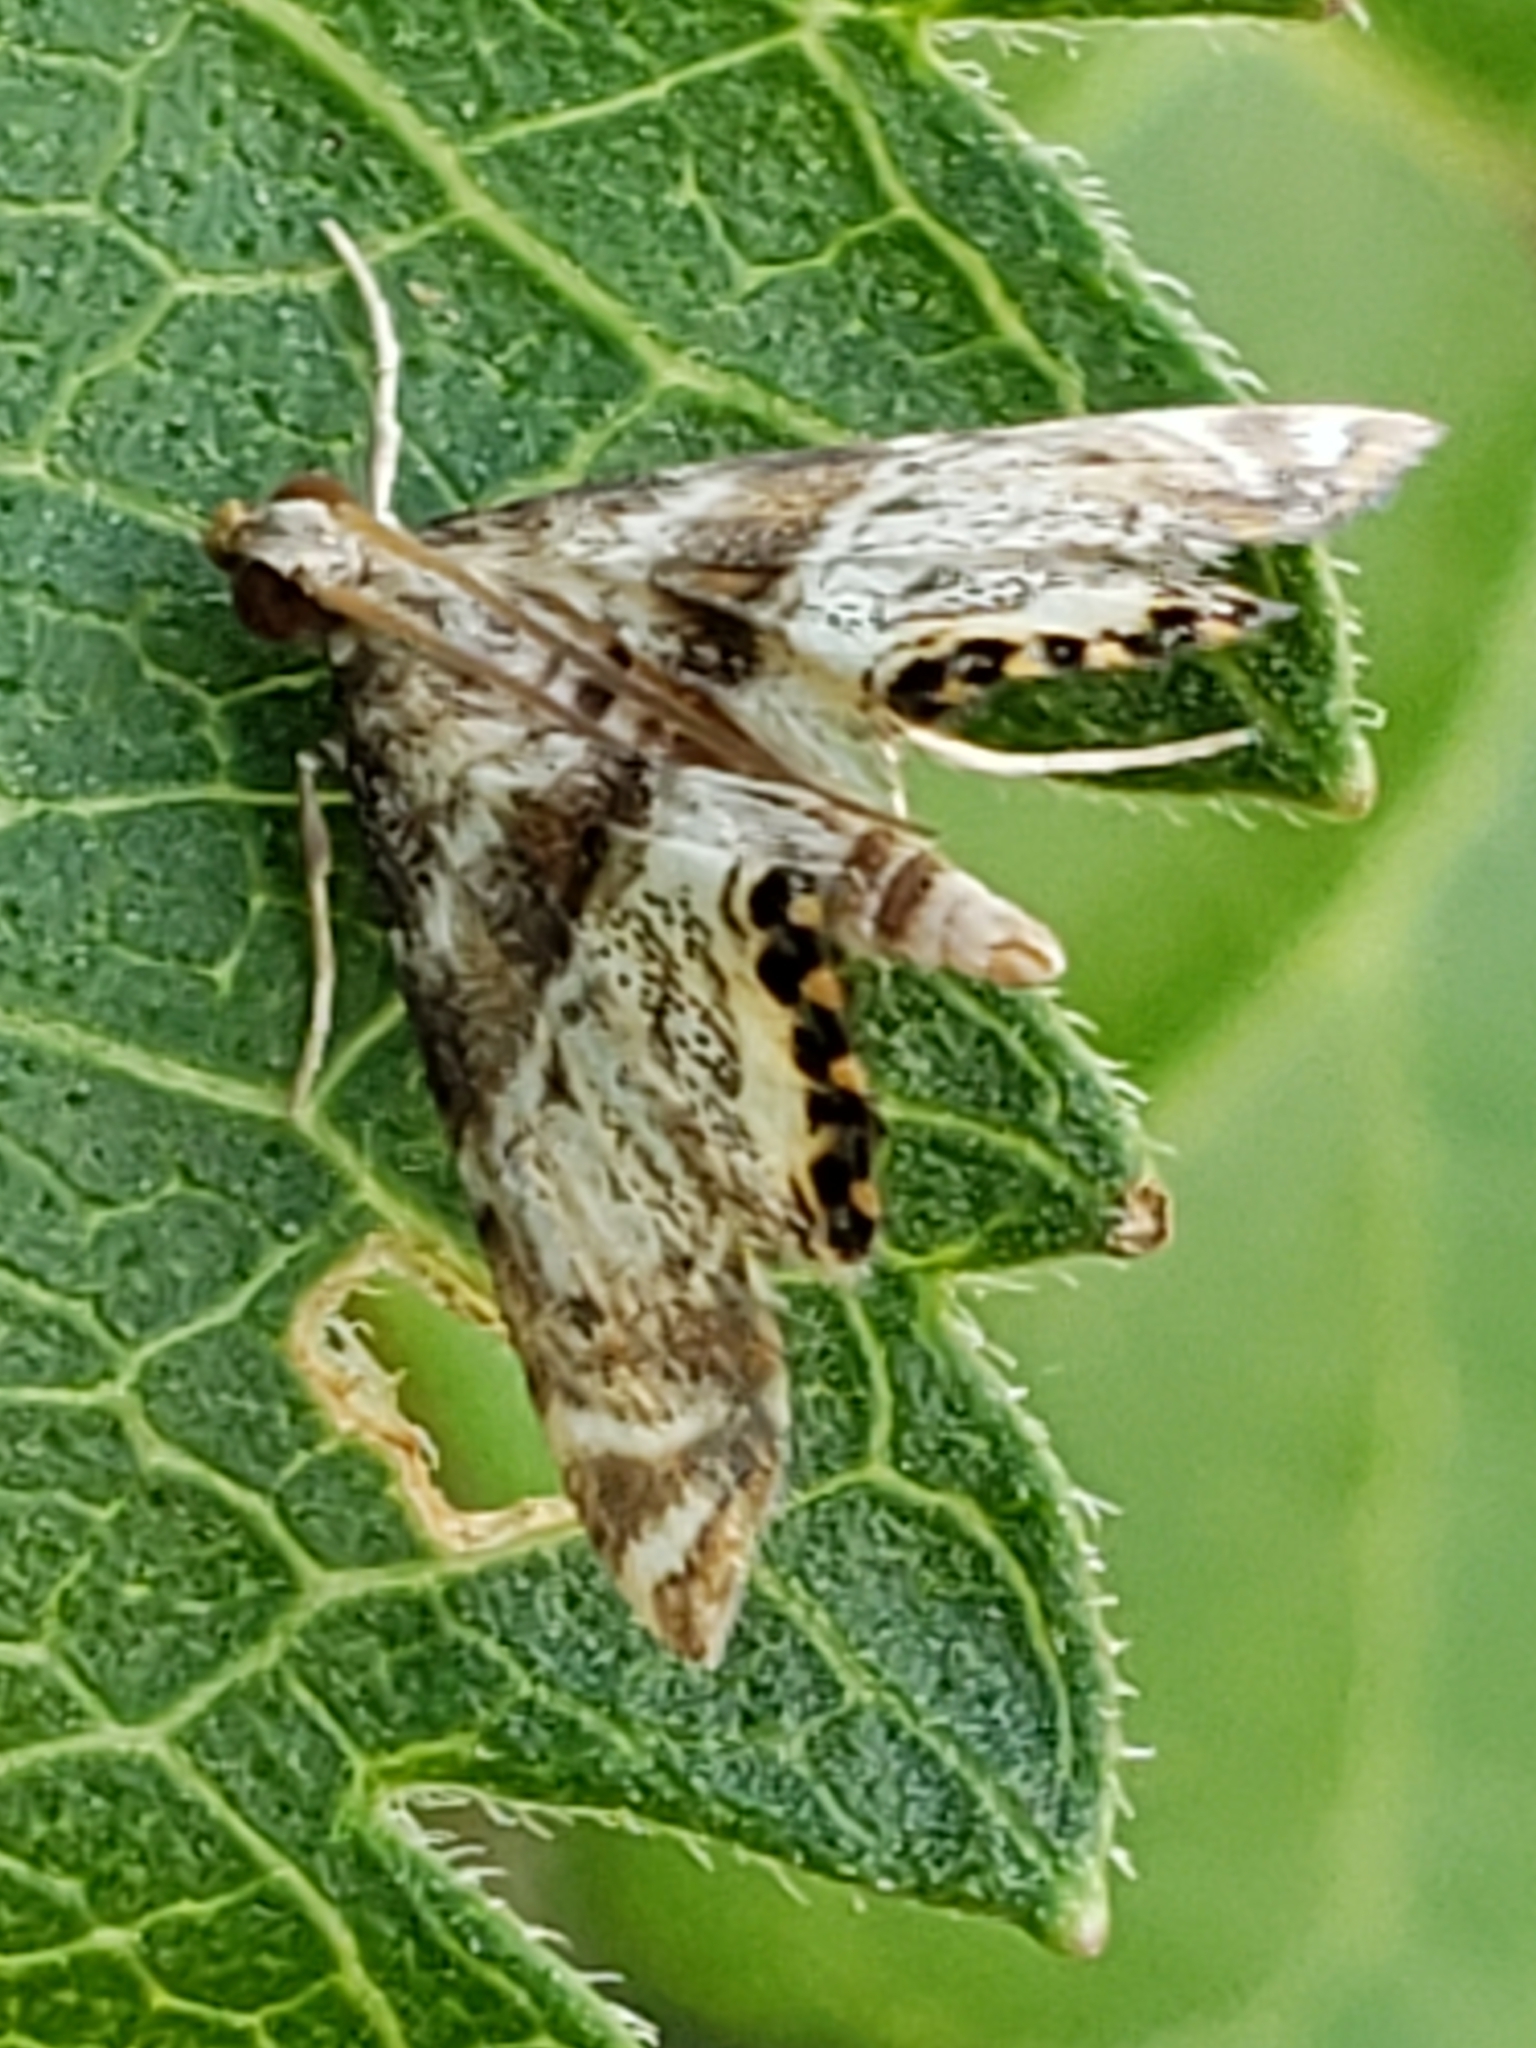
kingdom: Animalia
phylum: Arthropoda
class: Insecta
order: Lepidoptera
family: Crambidae
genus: Petrophila
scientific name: Petrophila fulicalis
